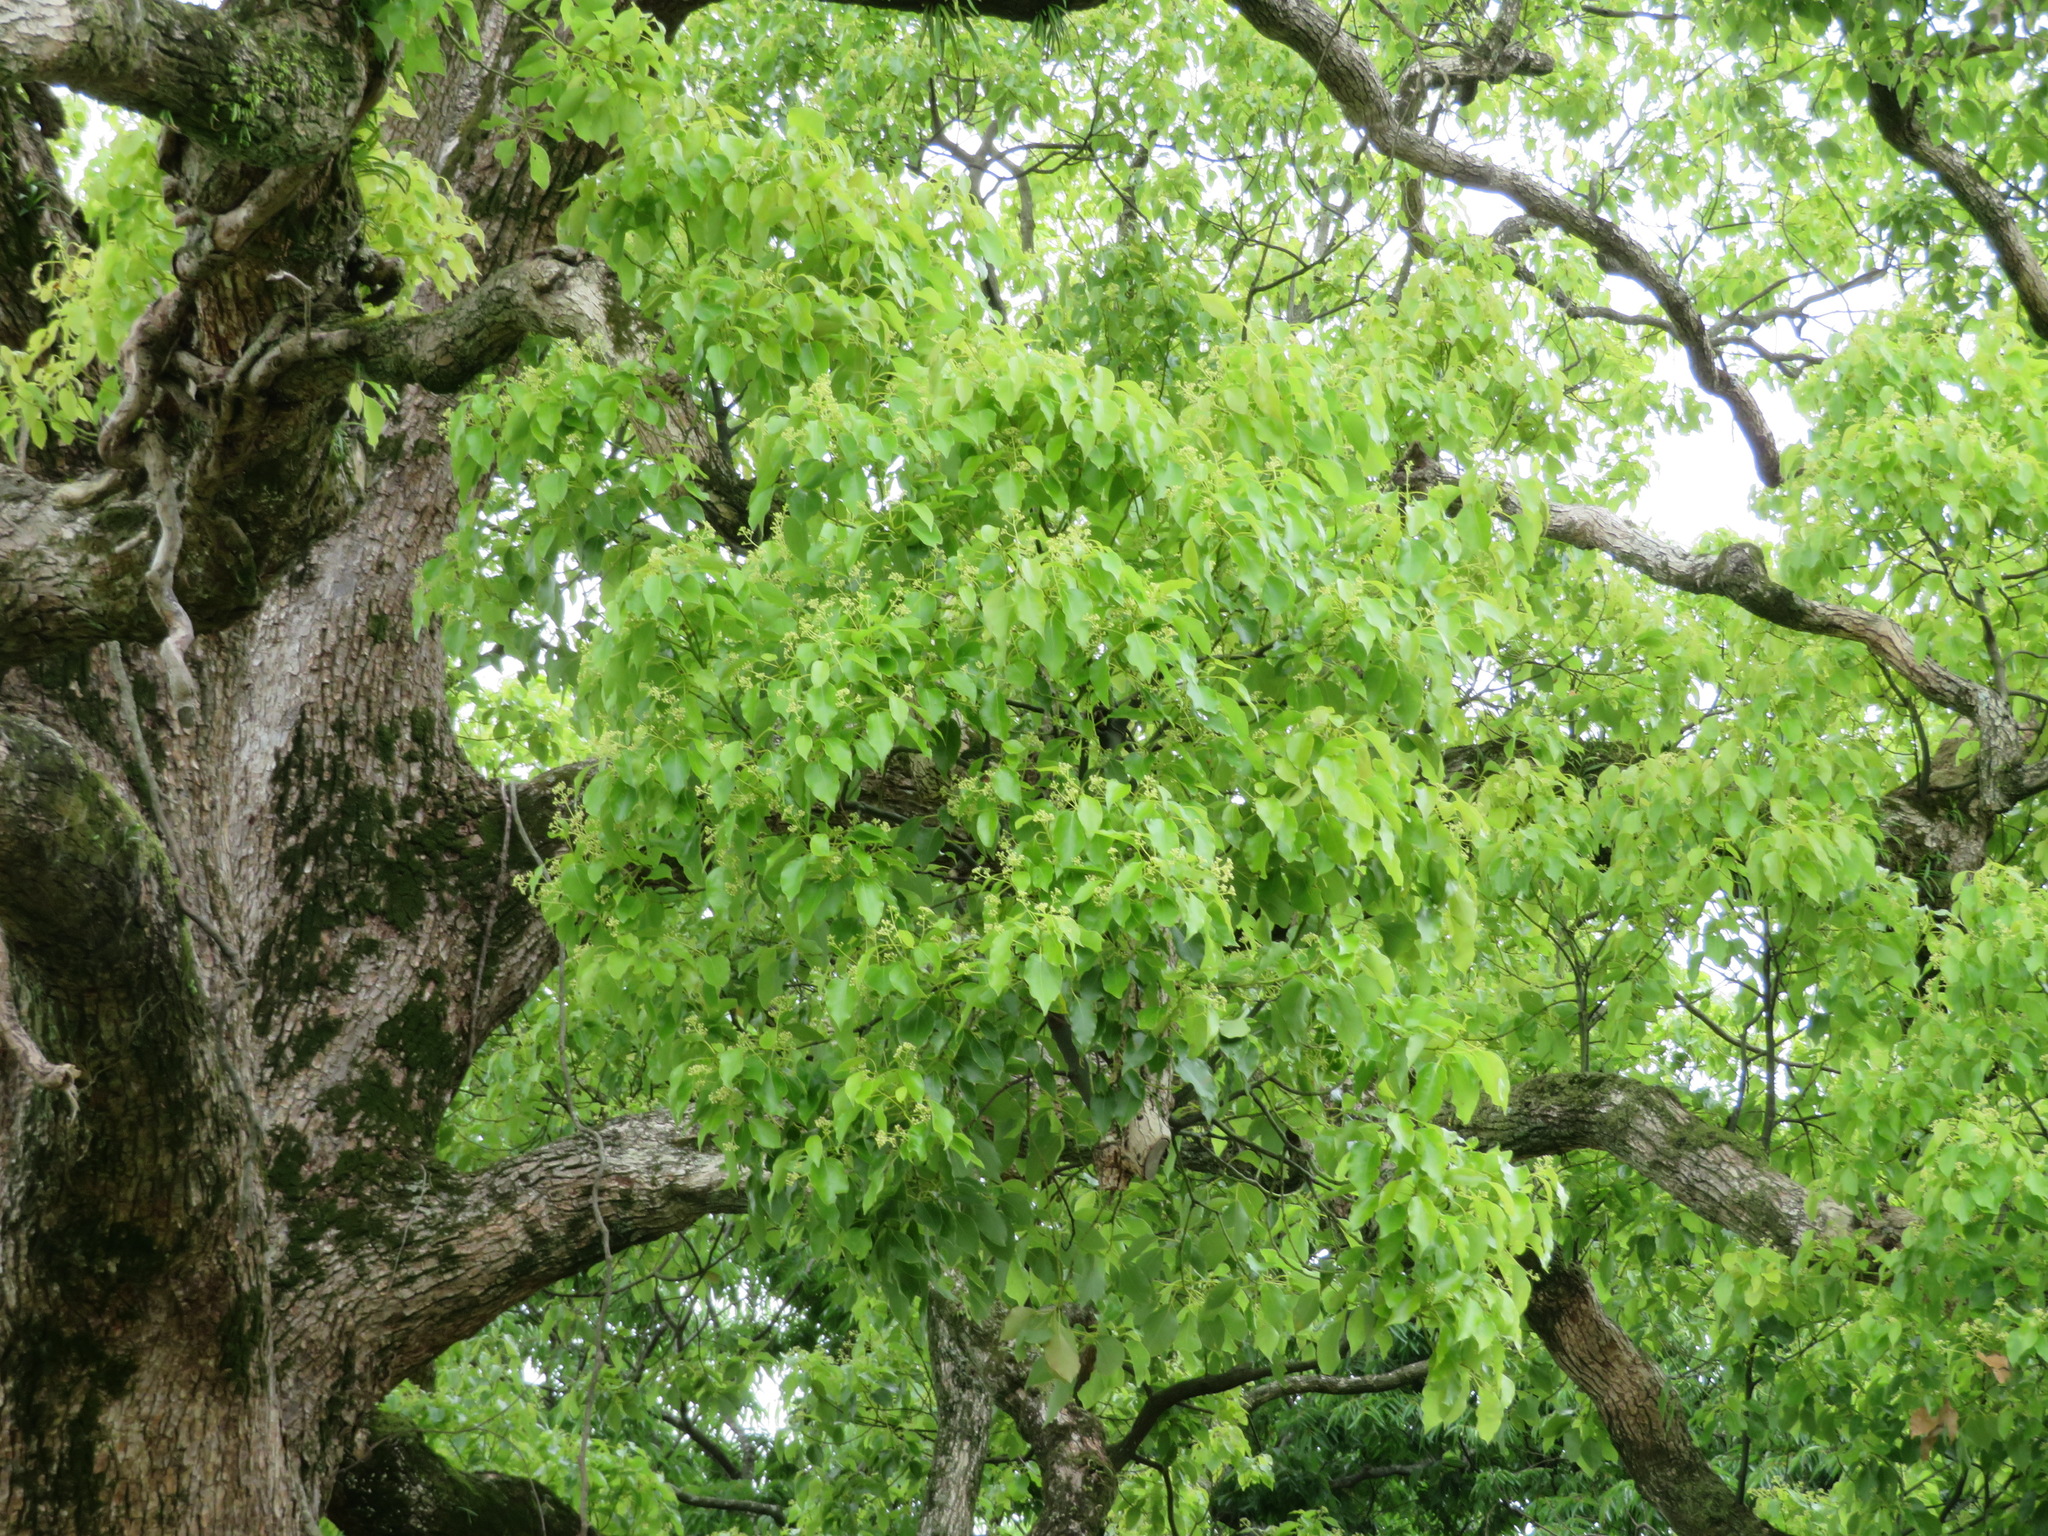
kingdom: Plantae
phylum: Tracheophyta
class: Magnoliopsida
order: Laurales
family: Lauraceae
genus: Cinnamomum
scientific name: Cinnamomum camphora
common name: Camphortree
